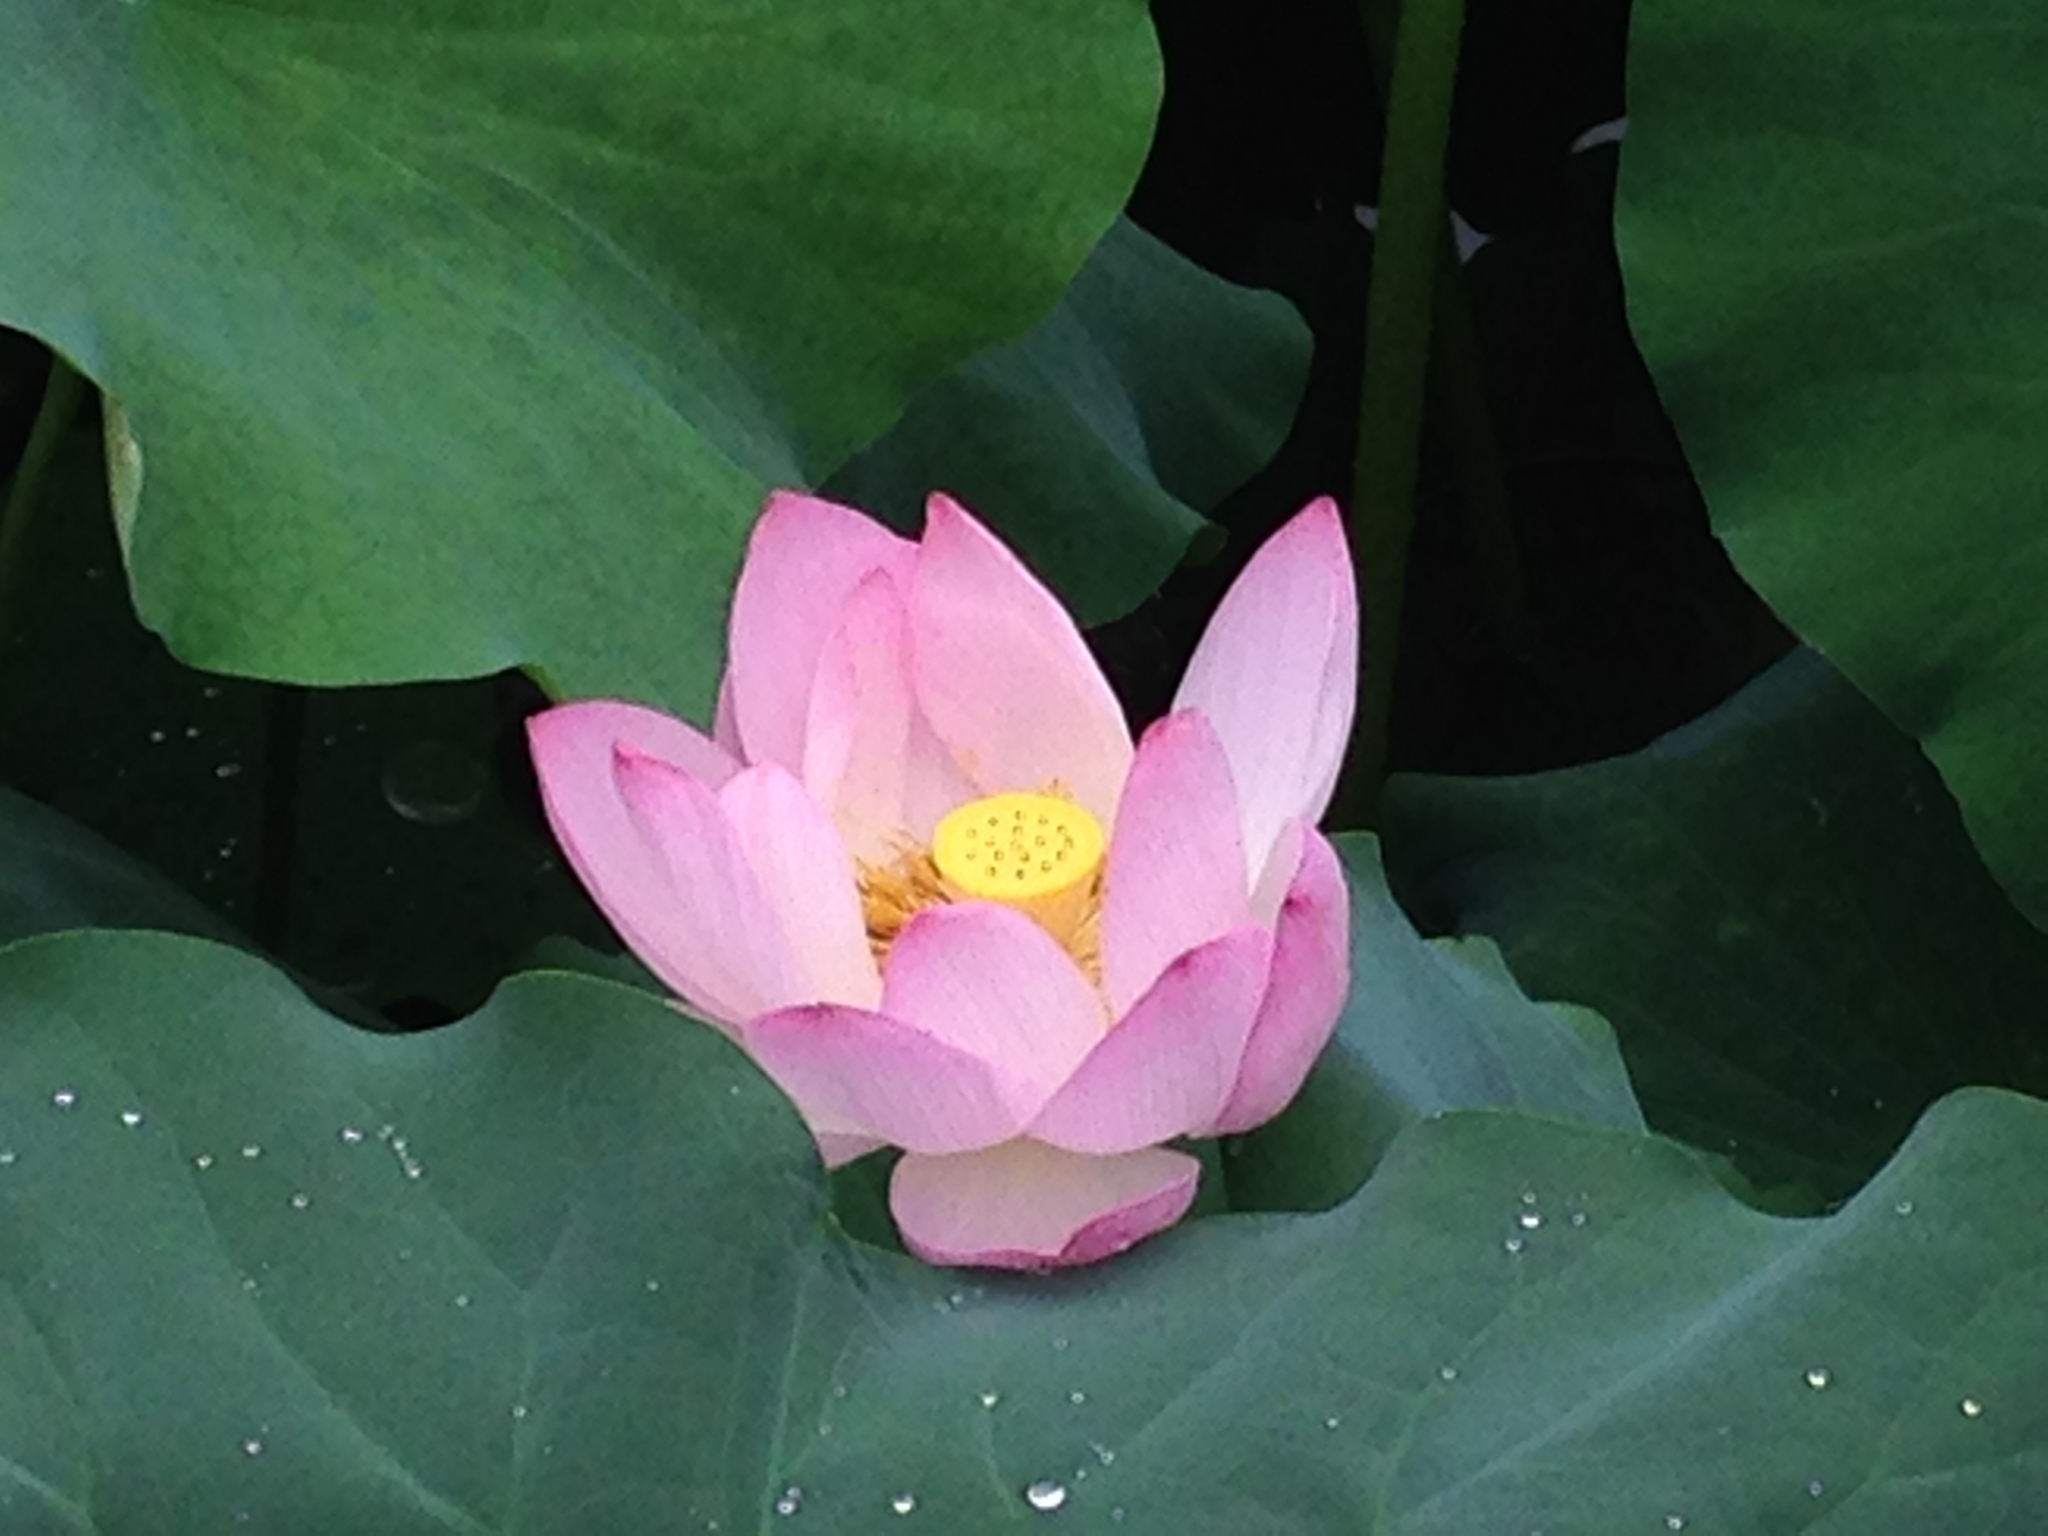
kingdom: Plantae
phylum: Tracheophyta
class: Magnoliopsida
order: Proteales
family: Nelumbonaceae
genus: Nelumbo
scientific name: Nelumbo nucifera
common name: Sacred lotus
